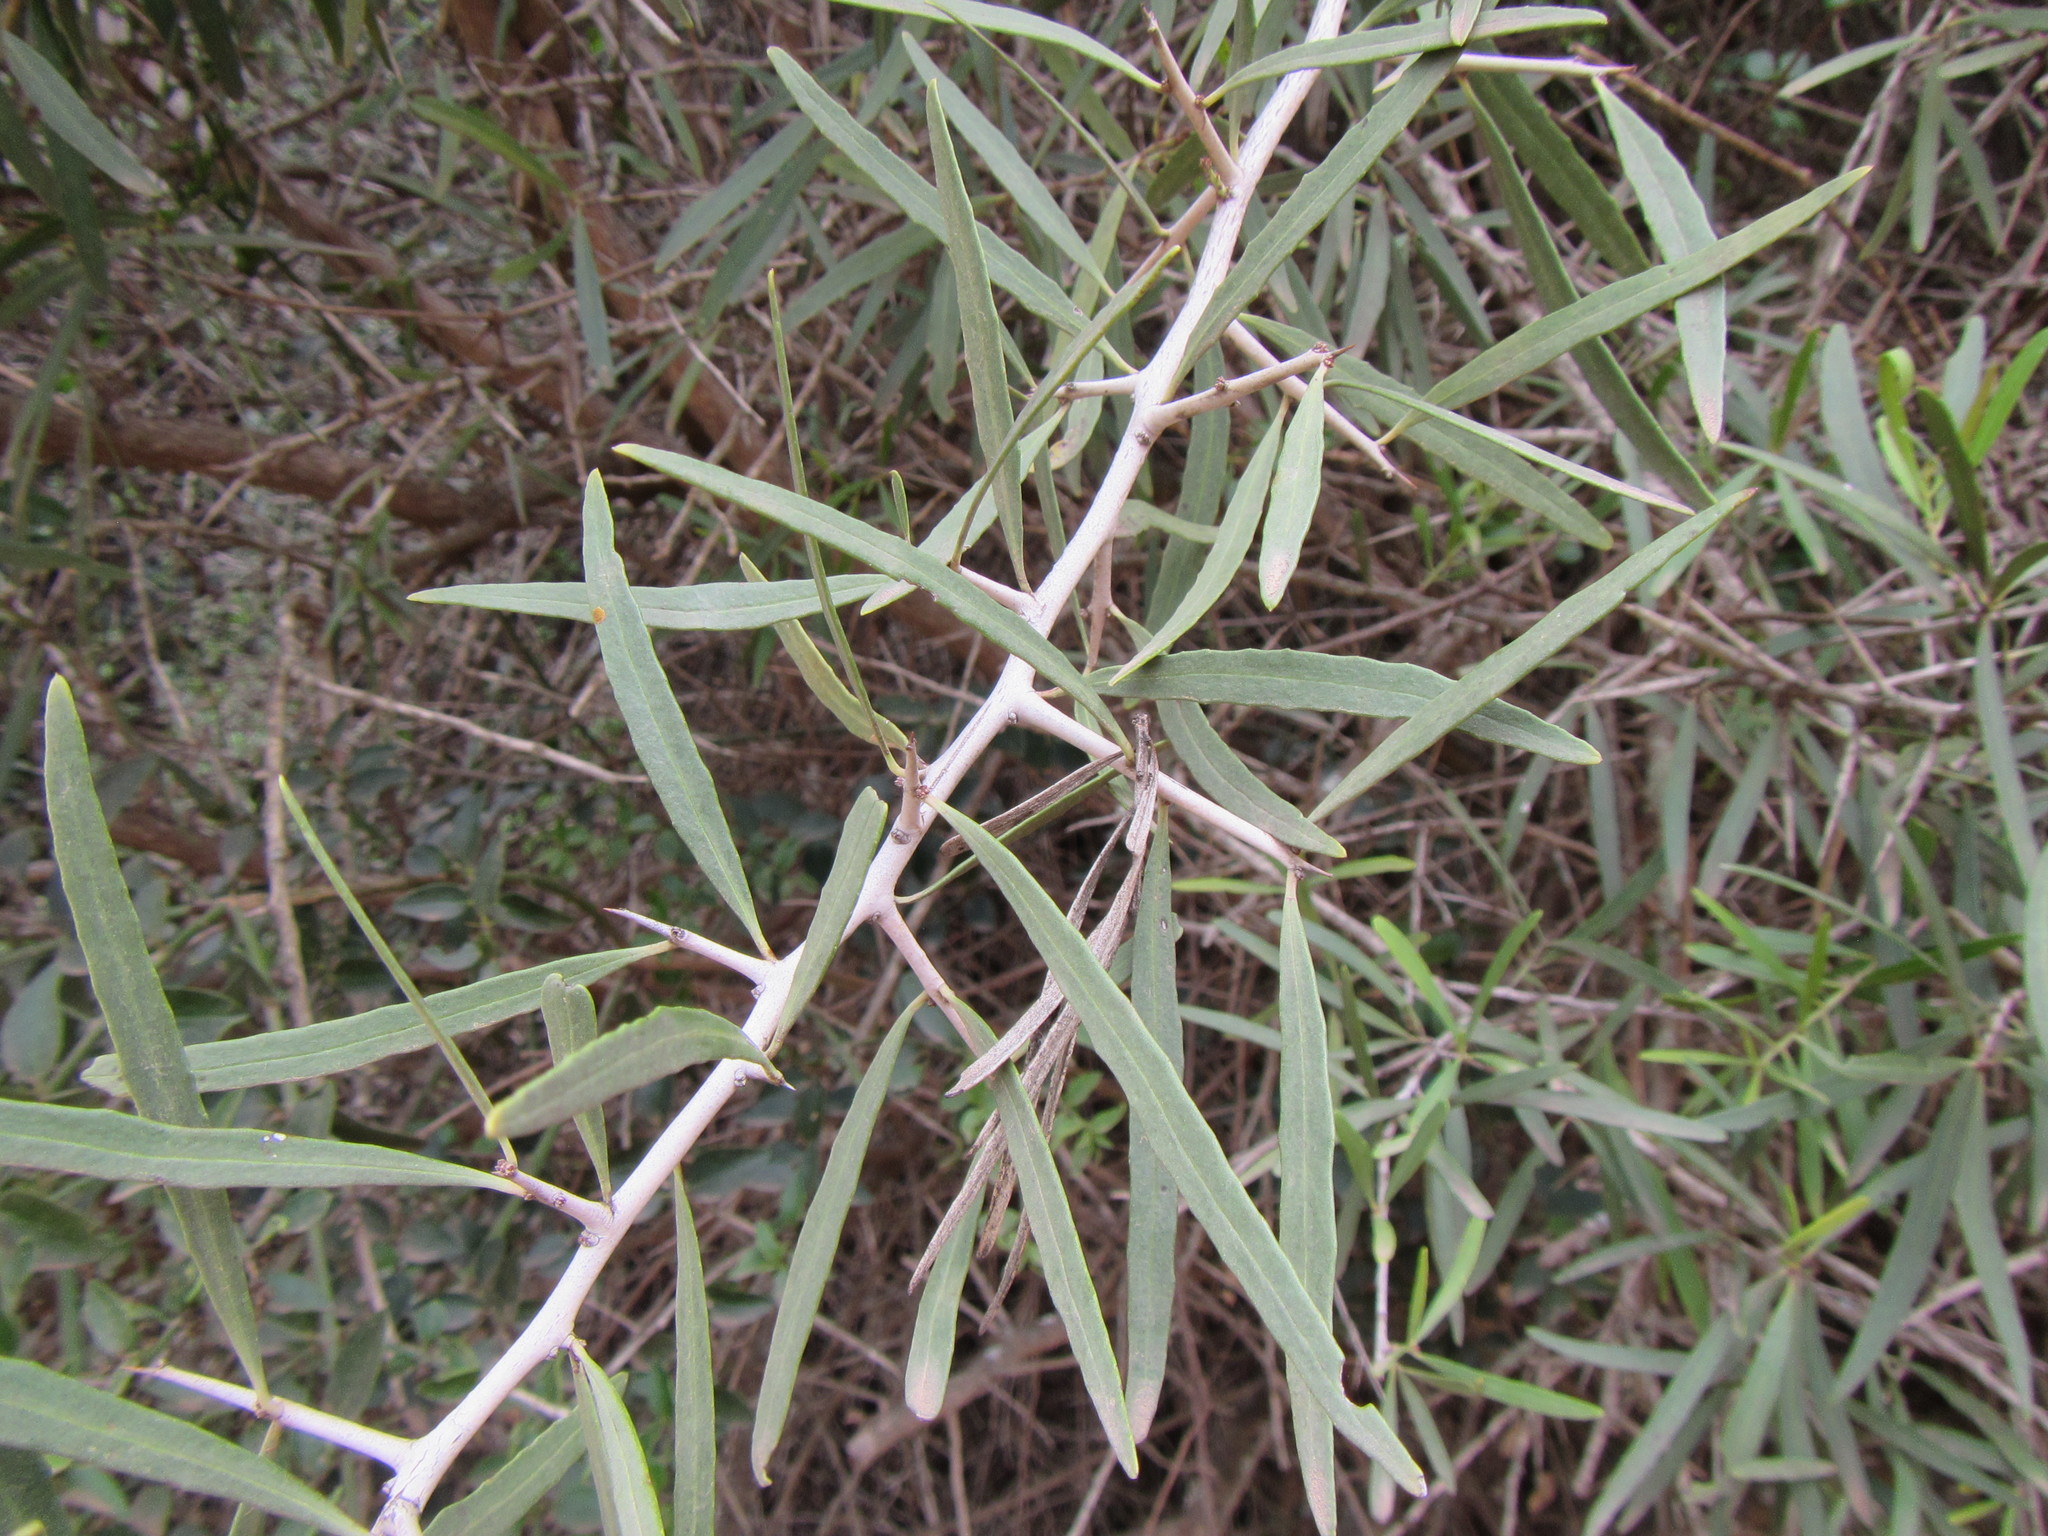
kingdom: Plantae
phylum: Tracheophyta
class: Magnoliopsida
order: Celastrales
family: Celastraceae
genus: Gymnosporia
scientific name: Gymnosporia linearis
